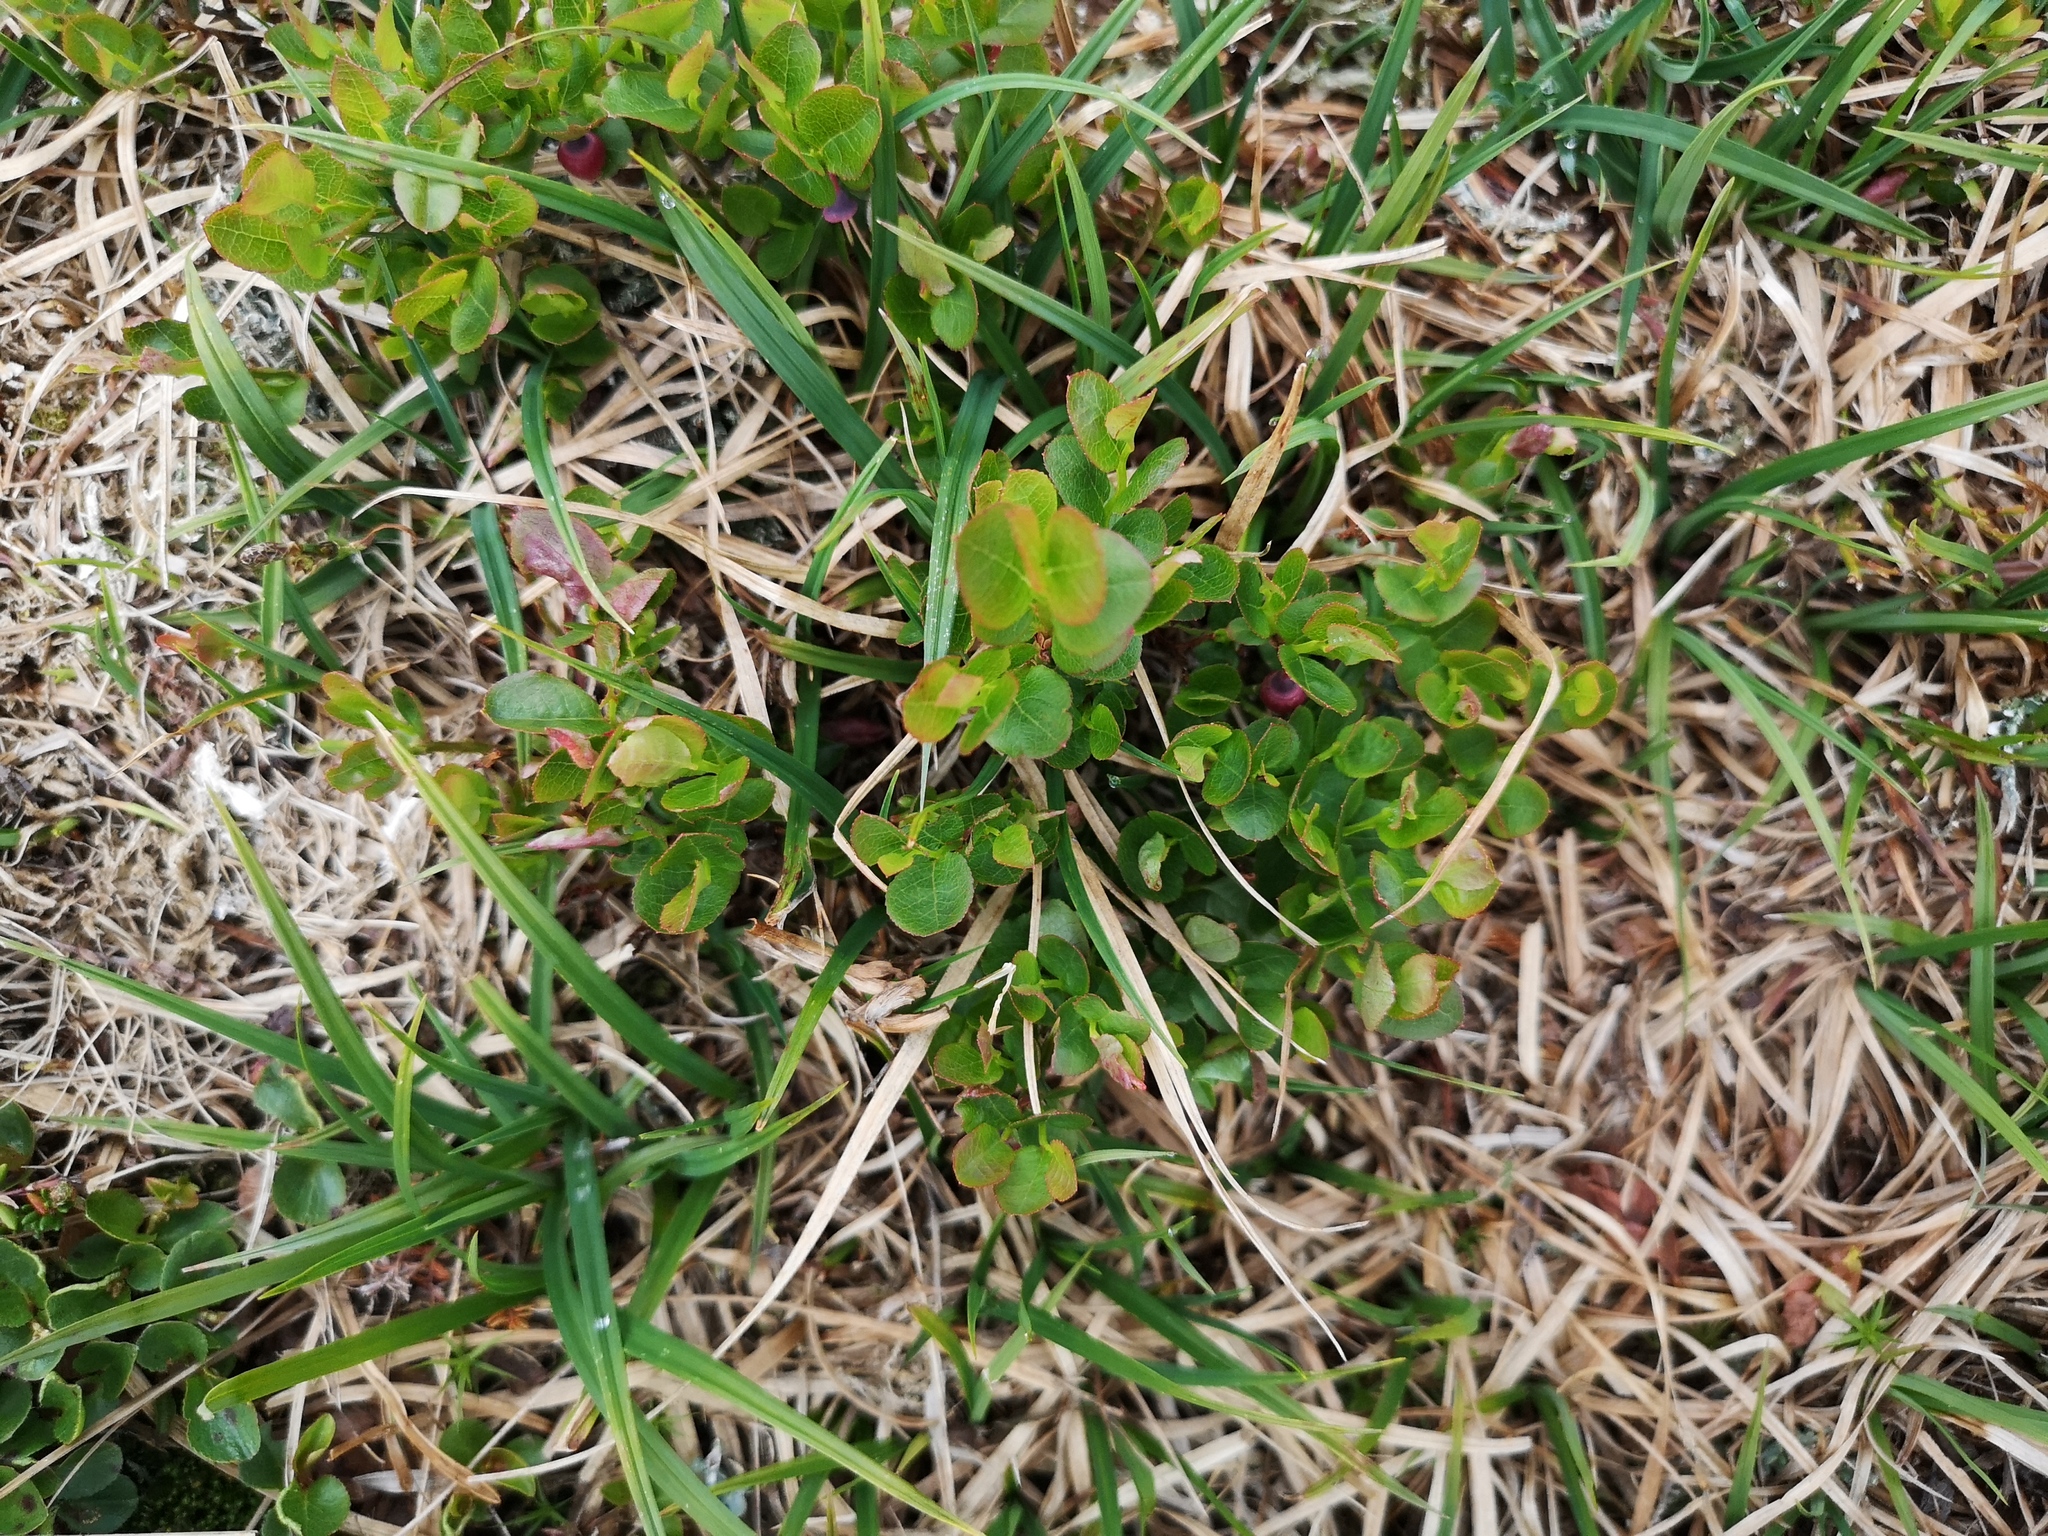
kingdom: Plantae
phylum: Tracheophyta
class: Magnoliopsida
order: Ericales
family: Ericaceae
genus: Vaccinium
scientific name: Vaccinium myrtillus
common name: Bilberry
